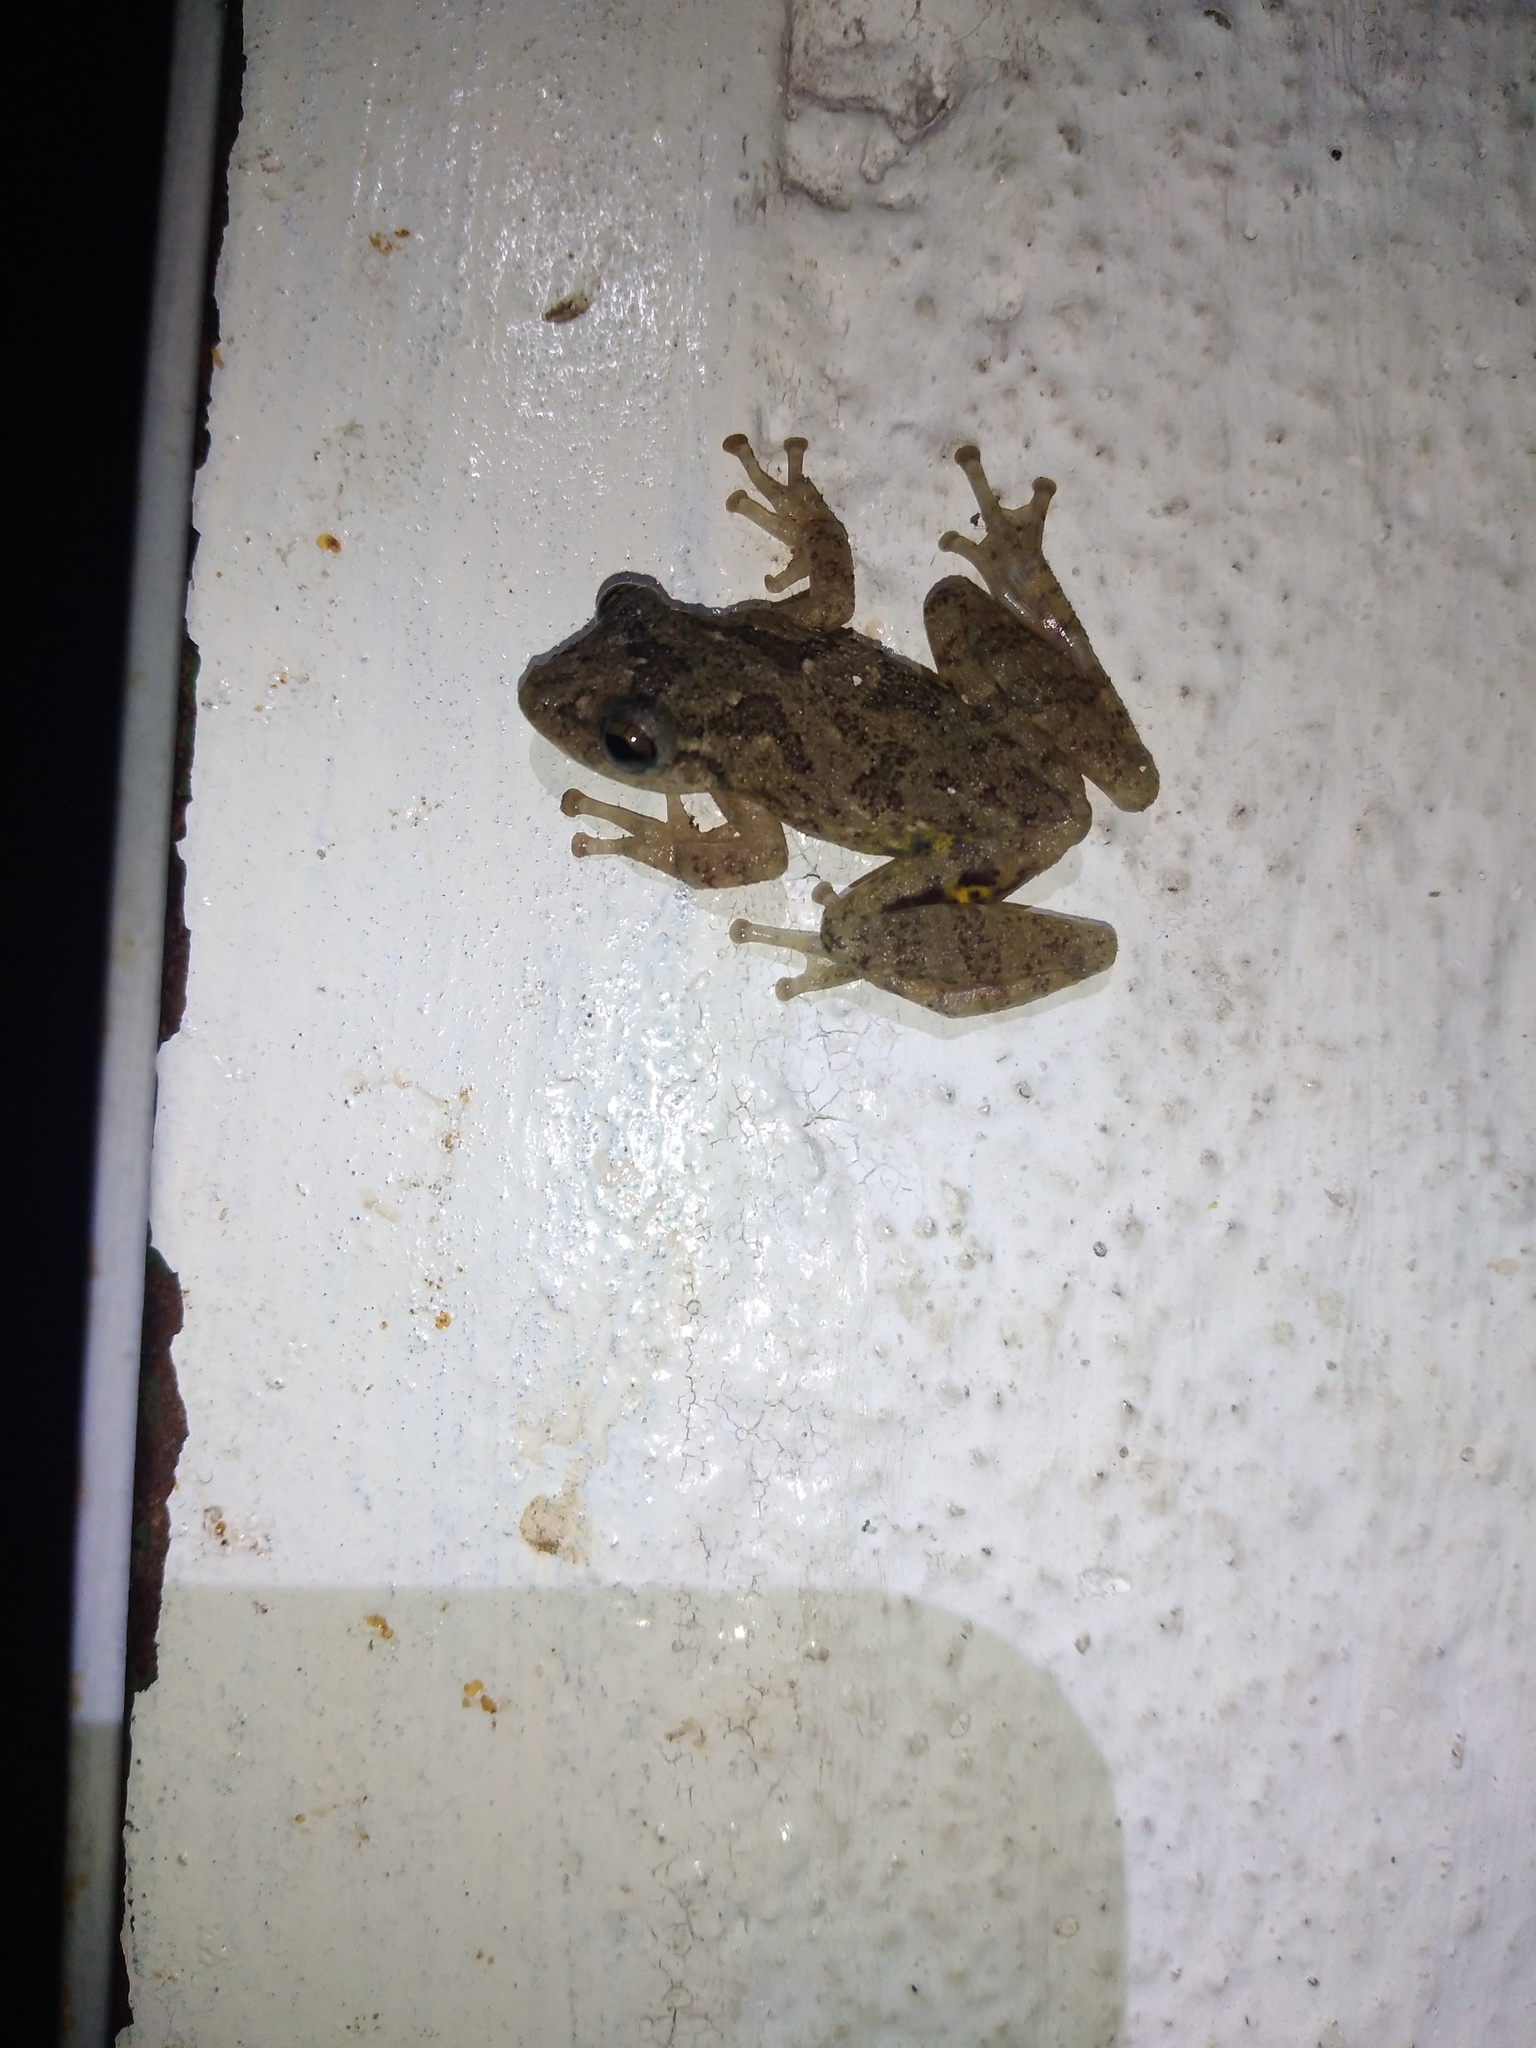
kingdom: Animalia
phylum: Chordata
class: Amphibia
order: Anura
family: Hylidae
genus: Scinax
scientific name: Scinax granulatus
